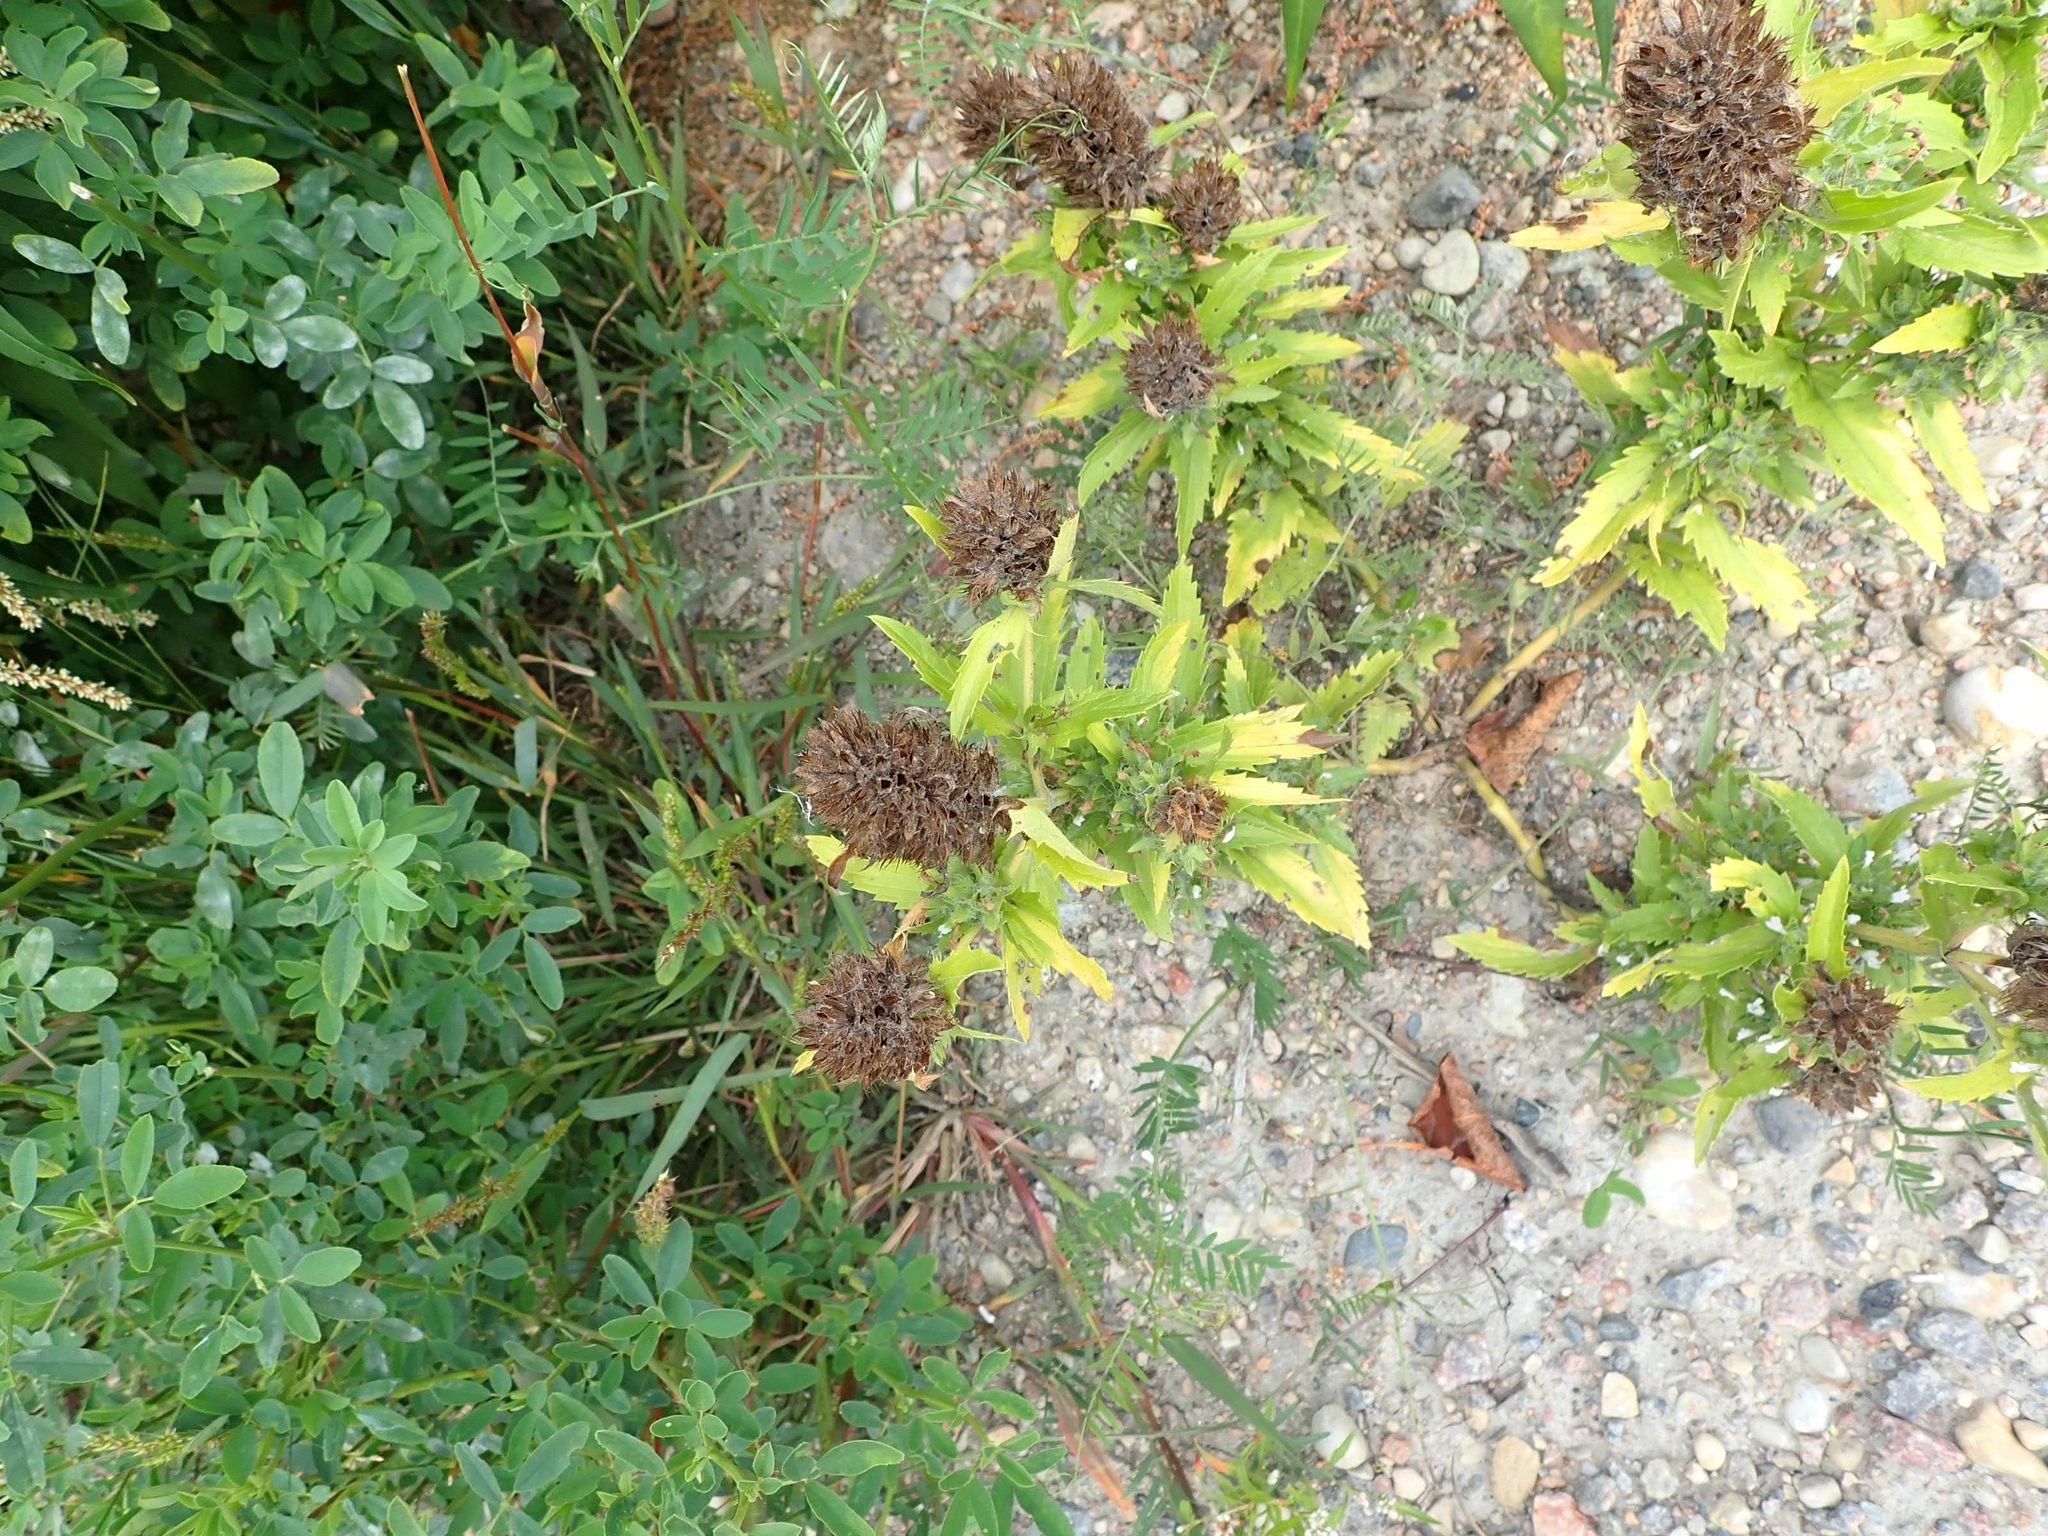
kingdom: Plantae
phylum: Tracheophyta
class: Magnoliopsida
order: Lamiales
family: Lamiaceae
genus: Dracocephalum
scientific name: Dracocephalum parviflorum
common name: American dragonhead
